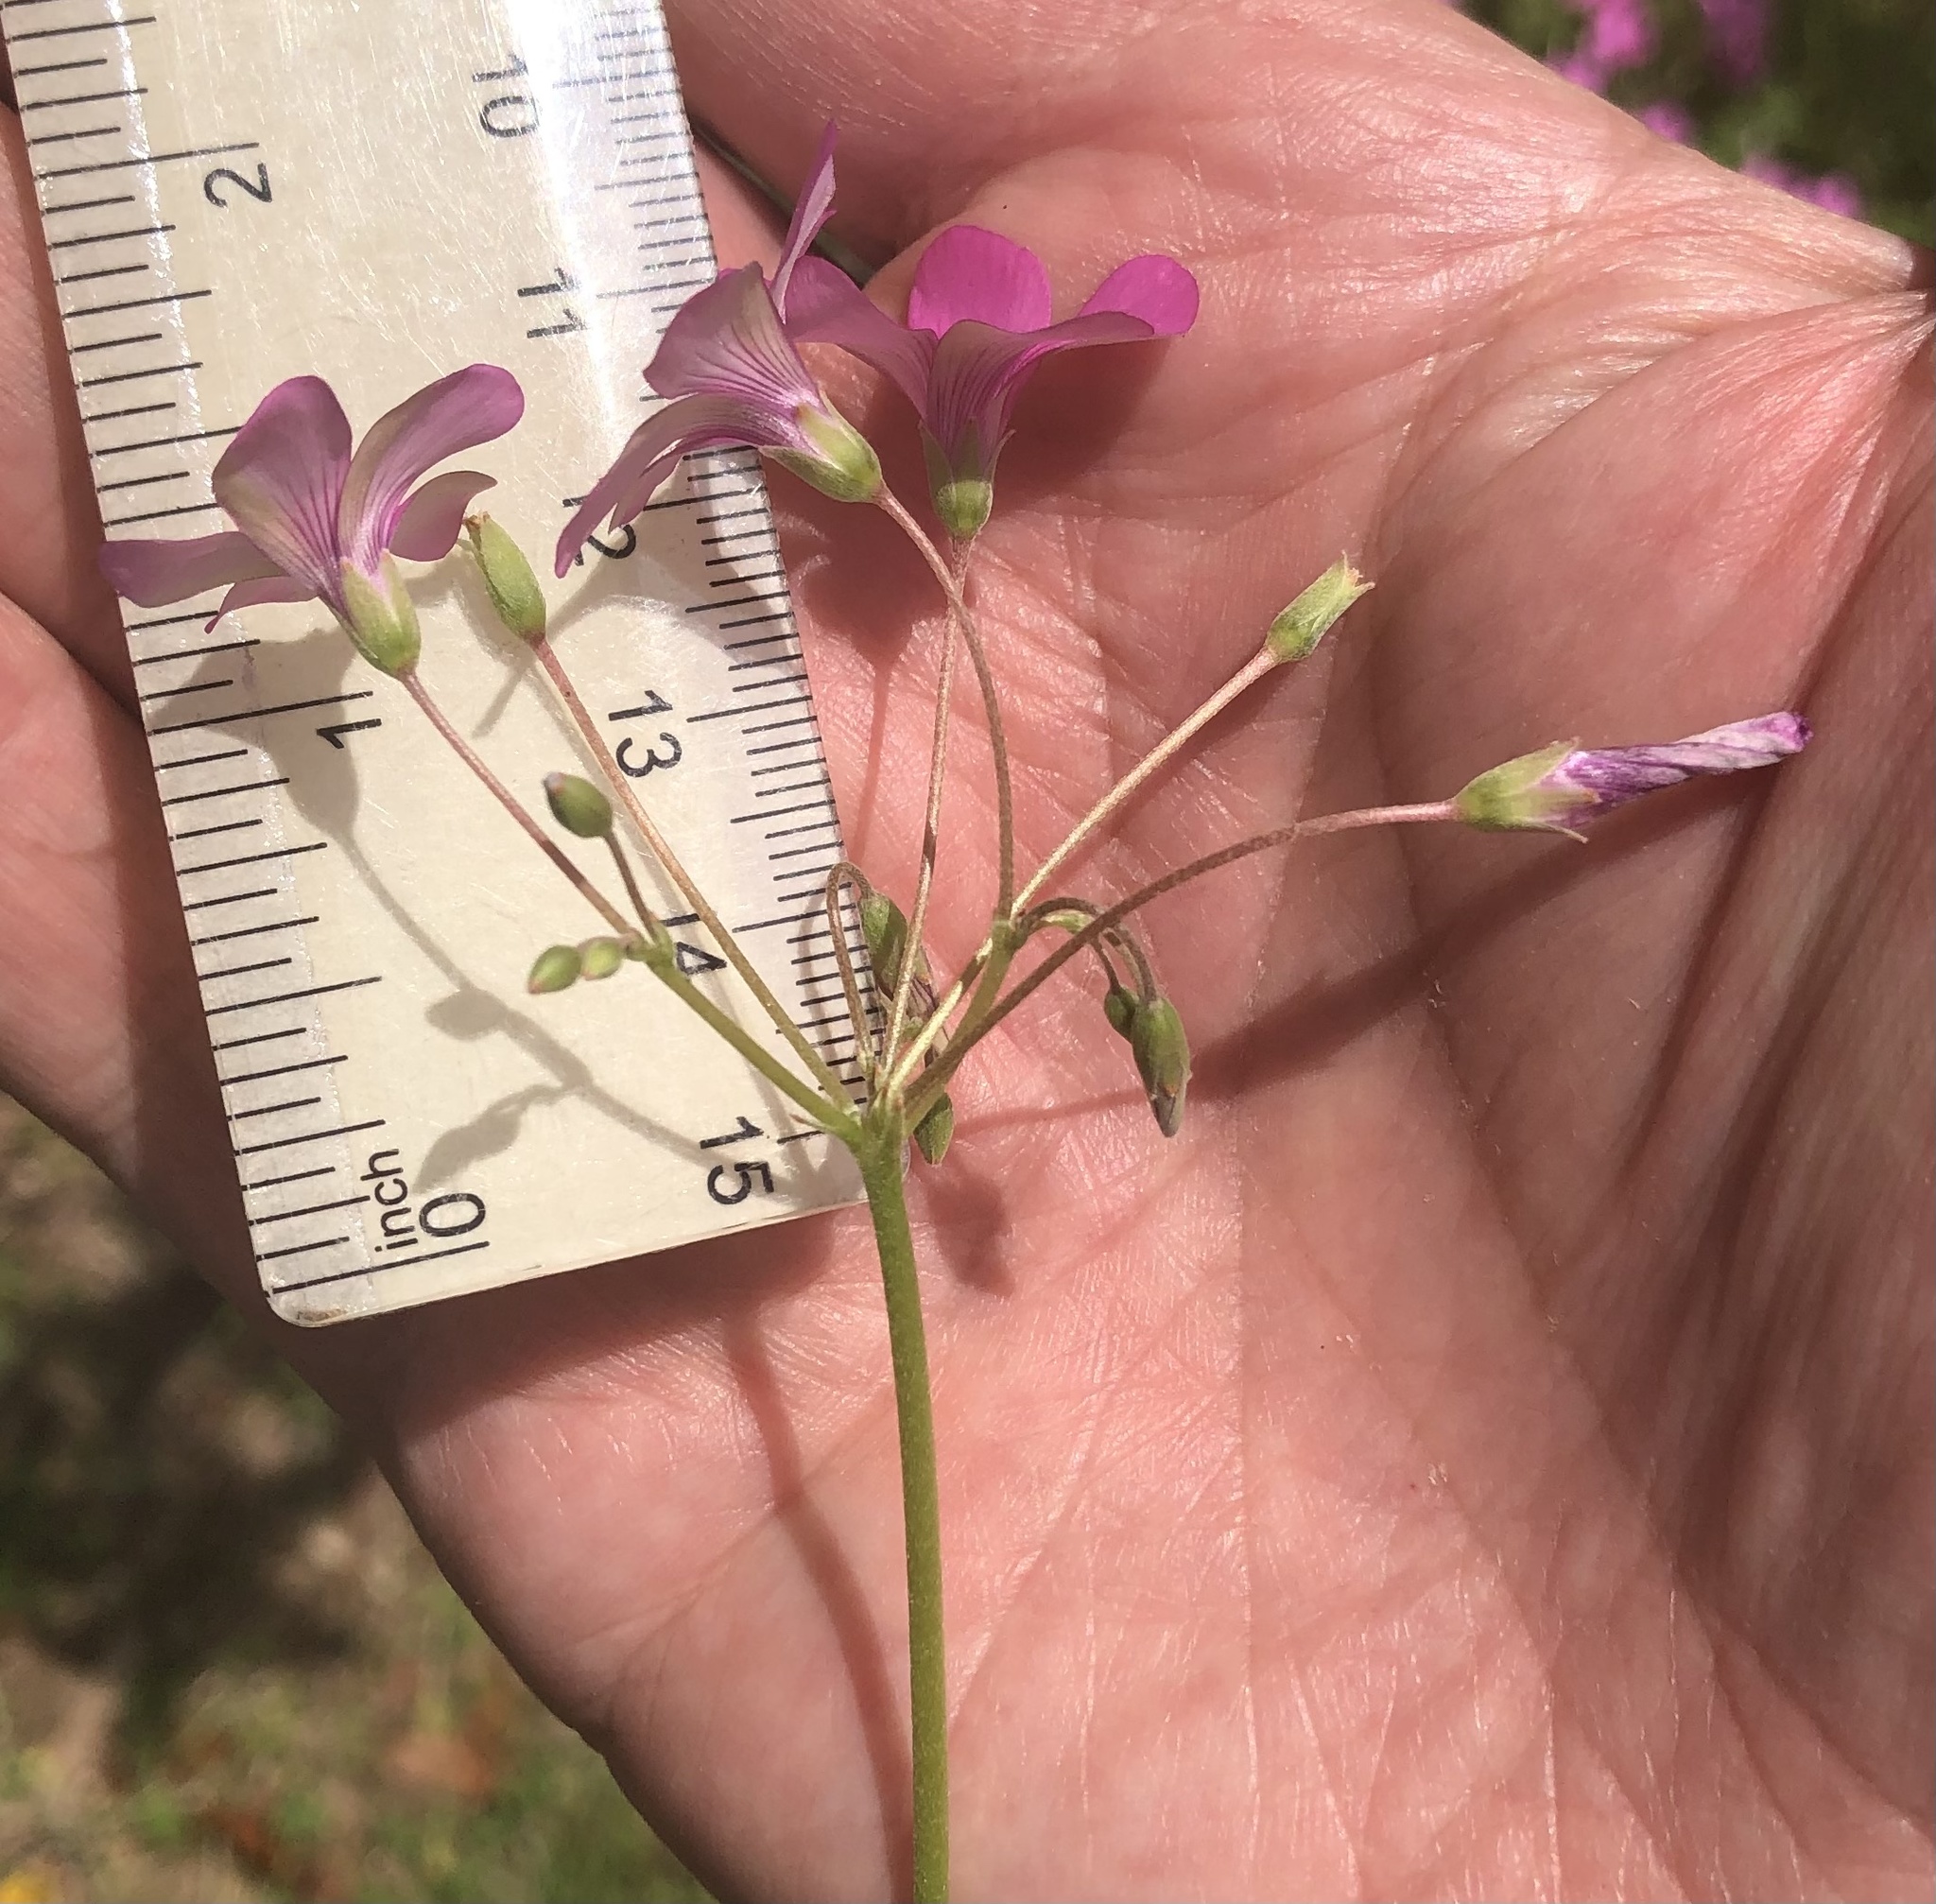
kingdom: Plantae
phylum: Tracheophyta
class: Magnoliopsida
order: Oxalidales
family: Oxalidaceae
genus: Oxalis
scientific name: Oxalis articulata
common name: Pink-sorrel
